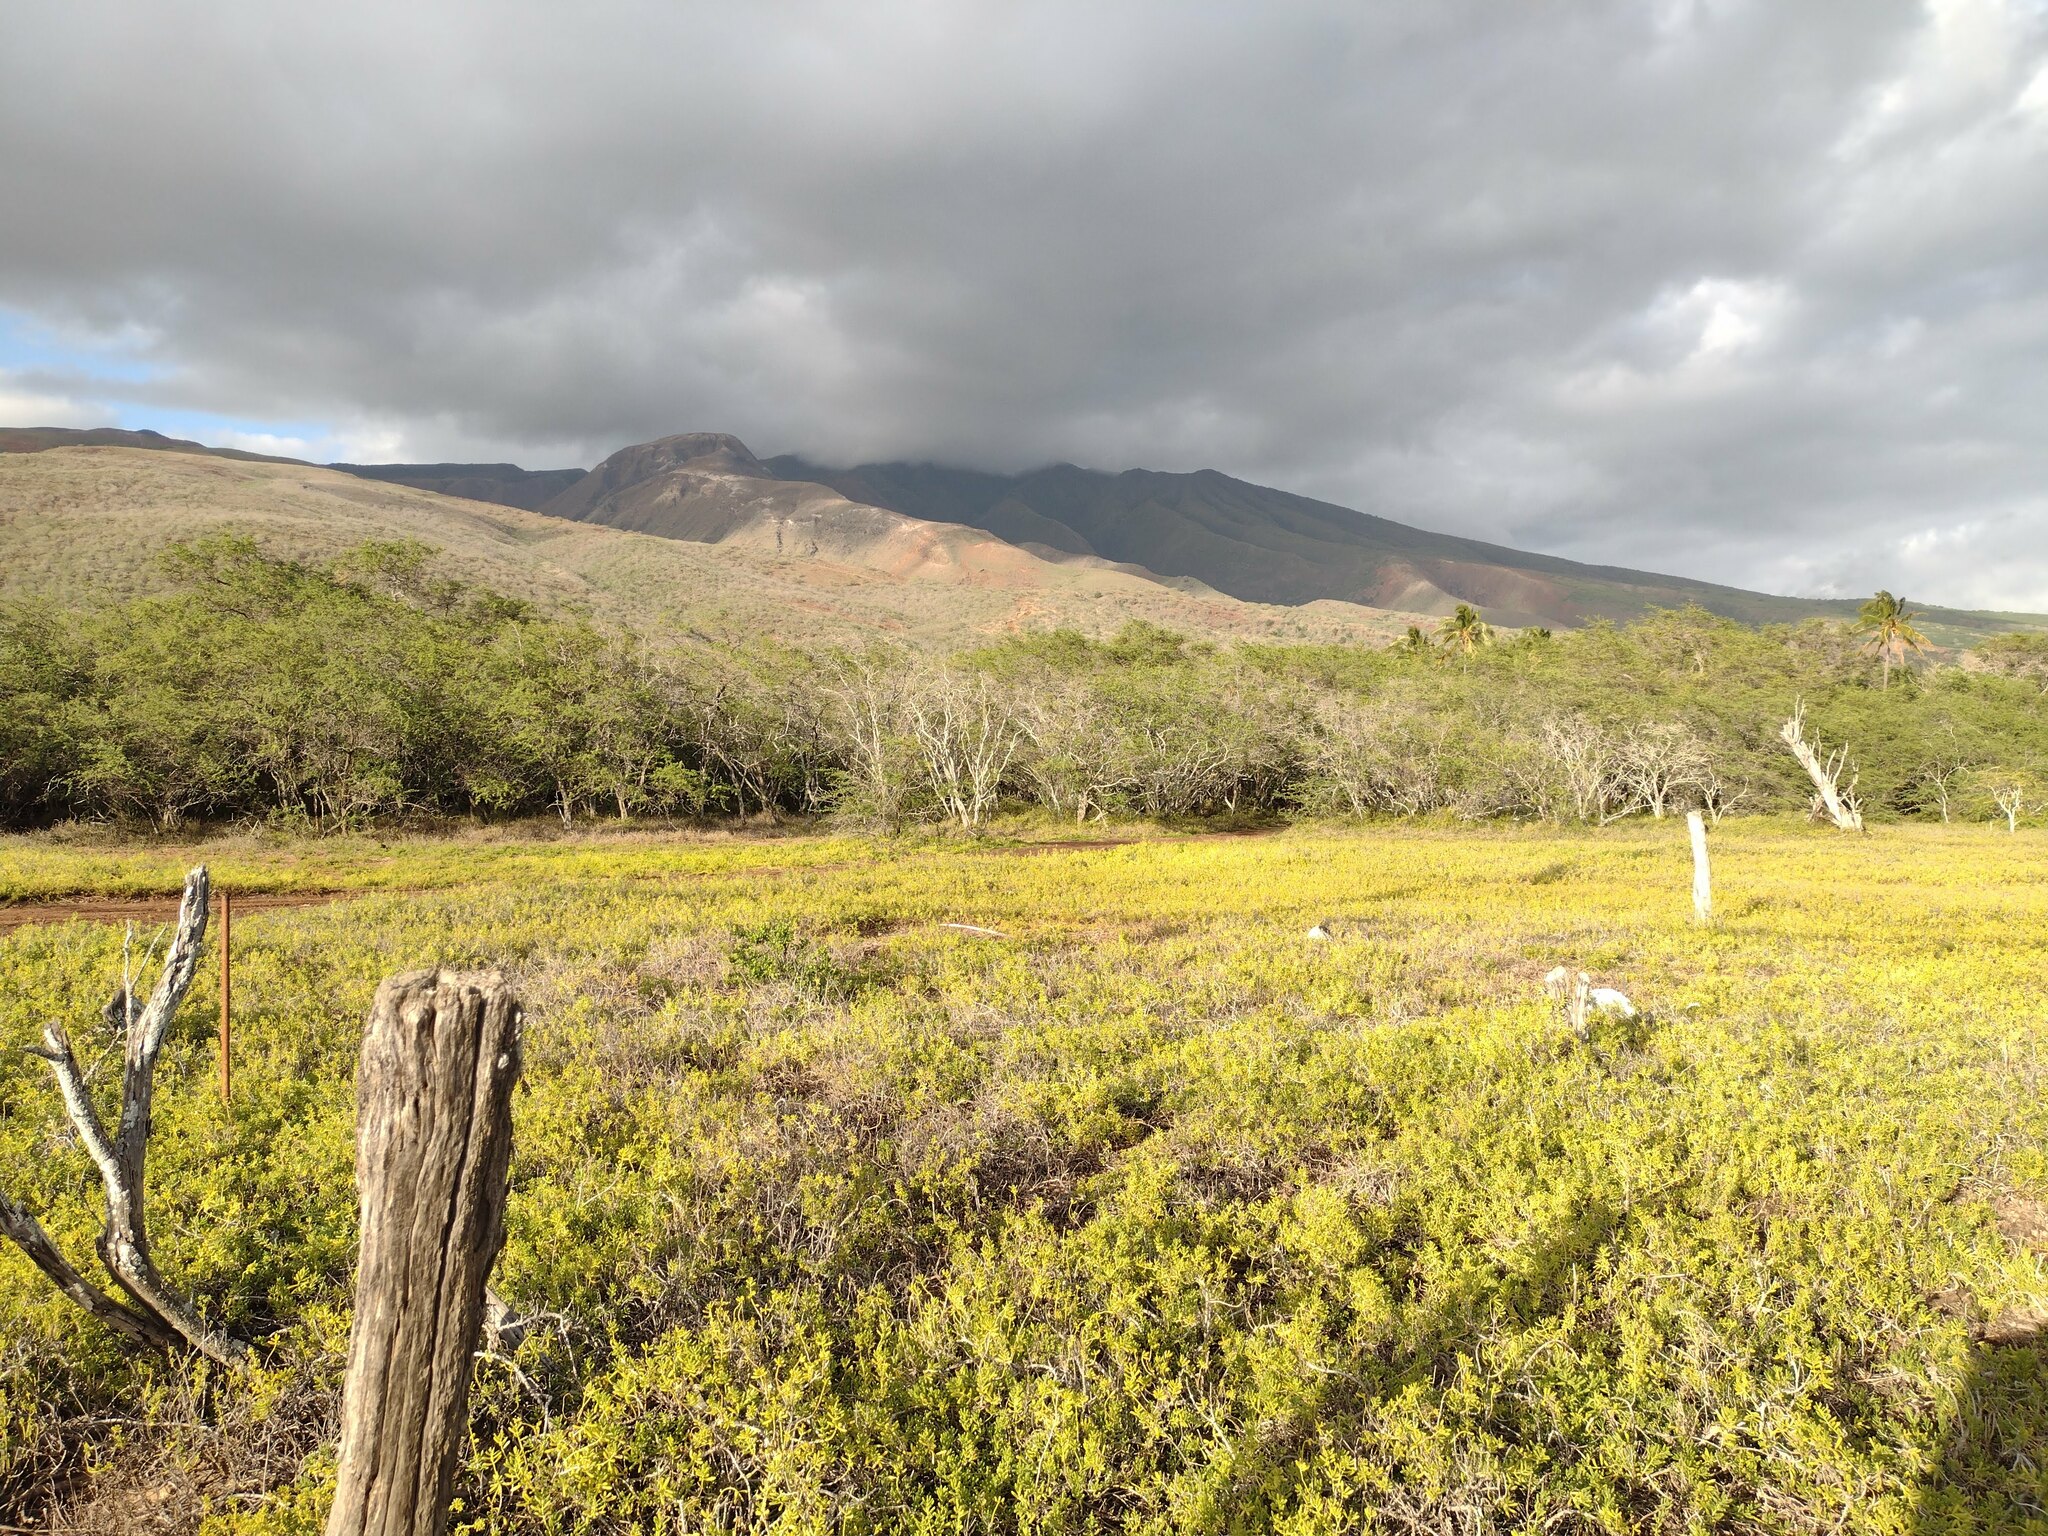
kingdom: Plantae
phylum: Tracheophyta
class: Magnoliopsida
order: Brassicales
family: Bataceae
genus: Batis
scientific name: Batis maritima
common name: Turtleweed
